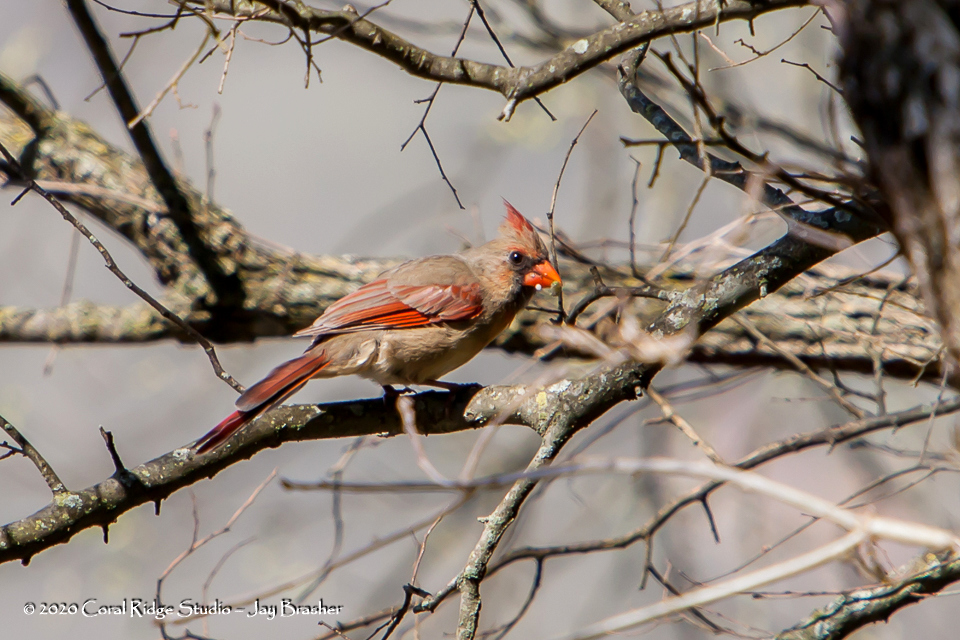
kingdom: Animalia
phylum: Chordata
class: Aves
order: Passeriformes
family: Cardinalidae
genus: Cardinalis
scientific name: Cardinalis cardinalis
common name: Northern cardinal
